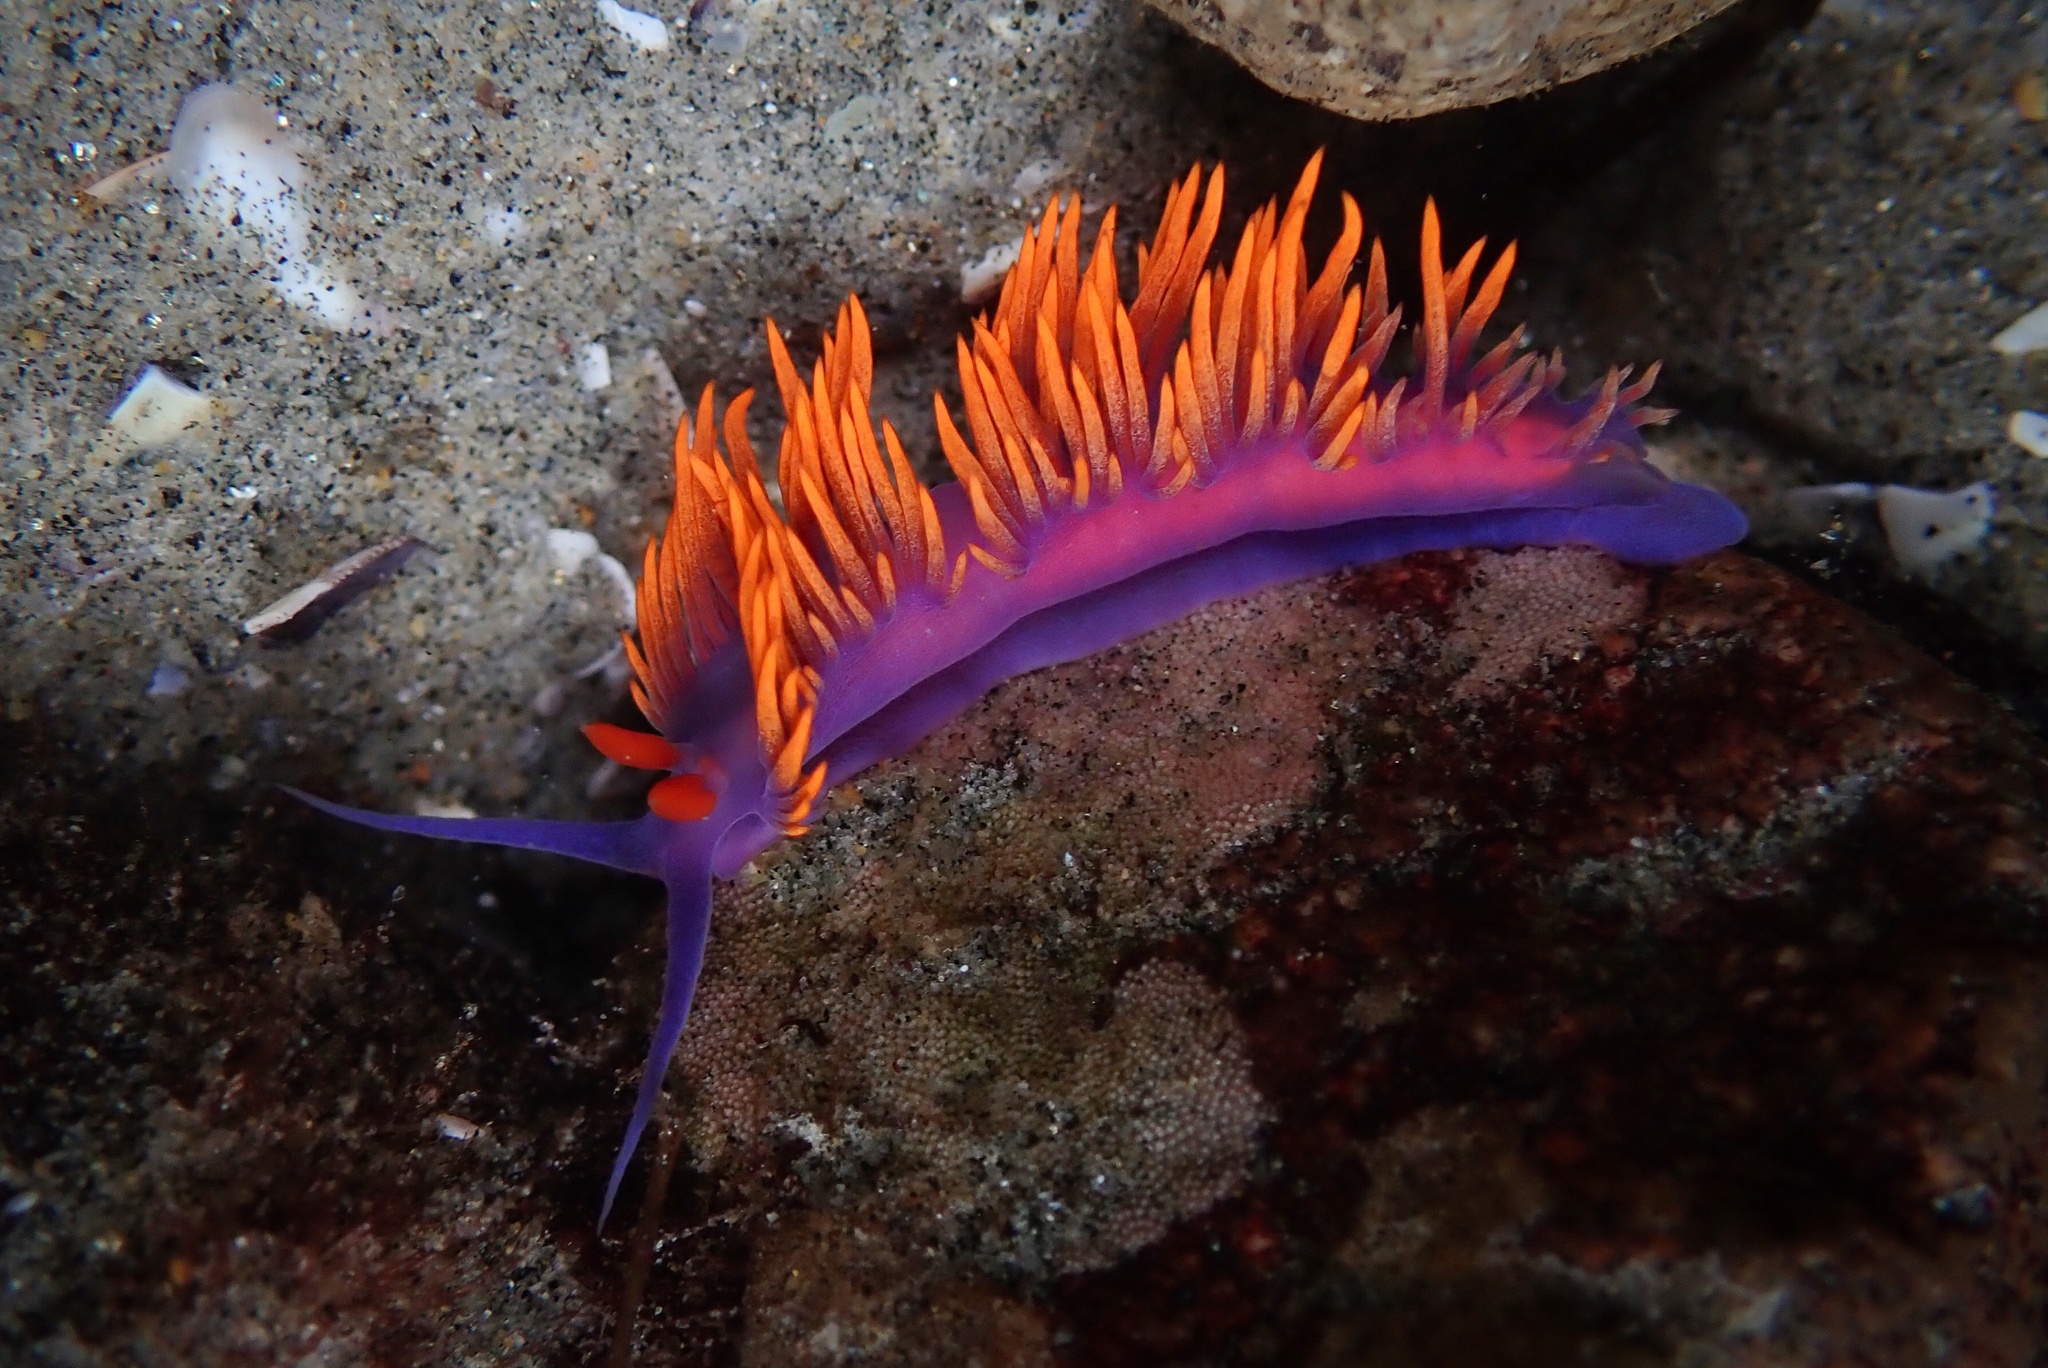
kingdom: Animalia
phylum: Mollusca
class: Gastropoda
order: Nudibranchia
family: Flabellinopsidae
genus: Flabellinopsis
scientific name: Flabellinopsis iodinea
